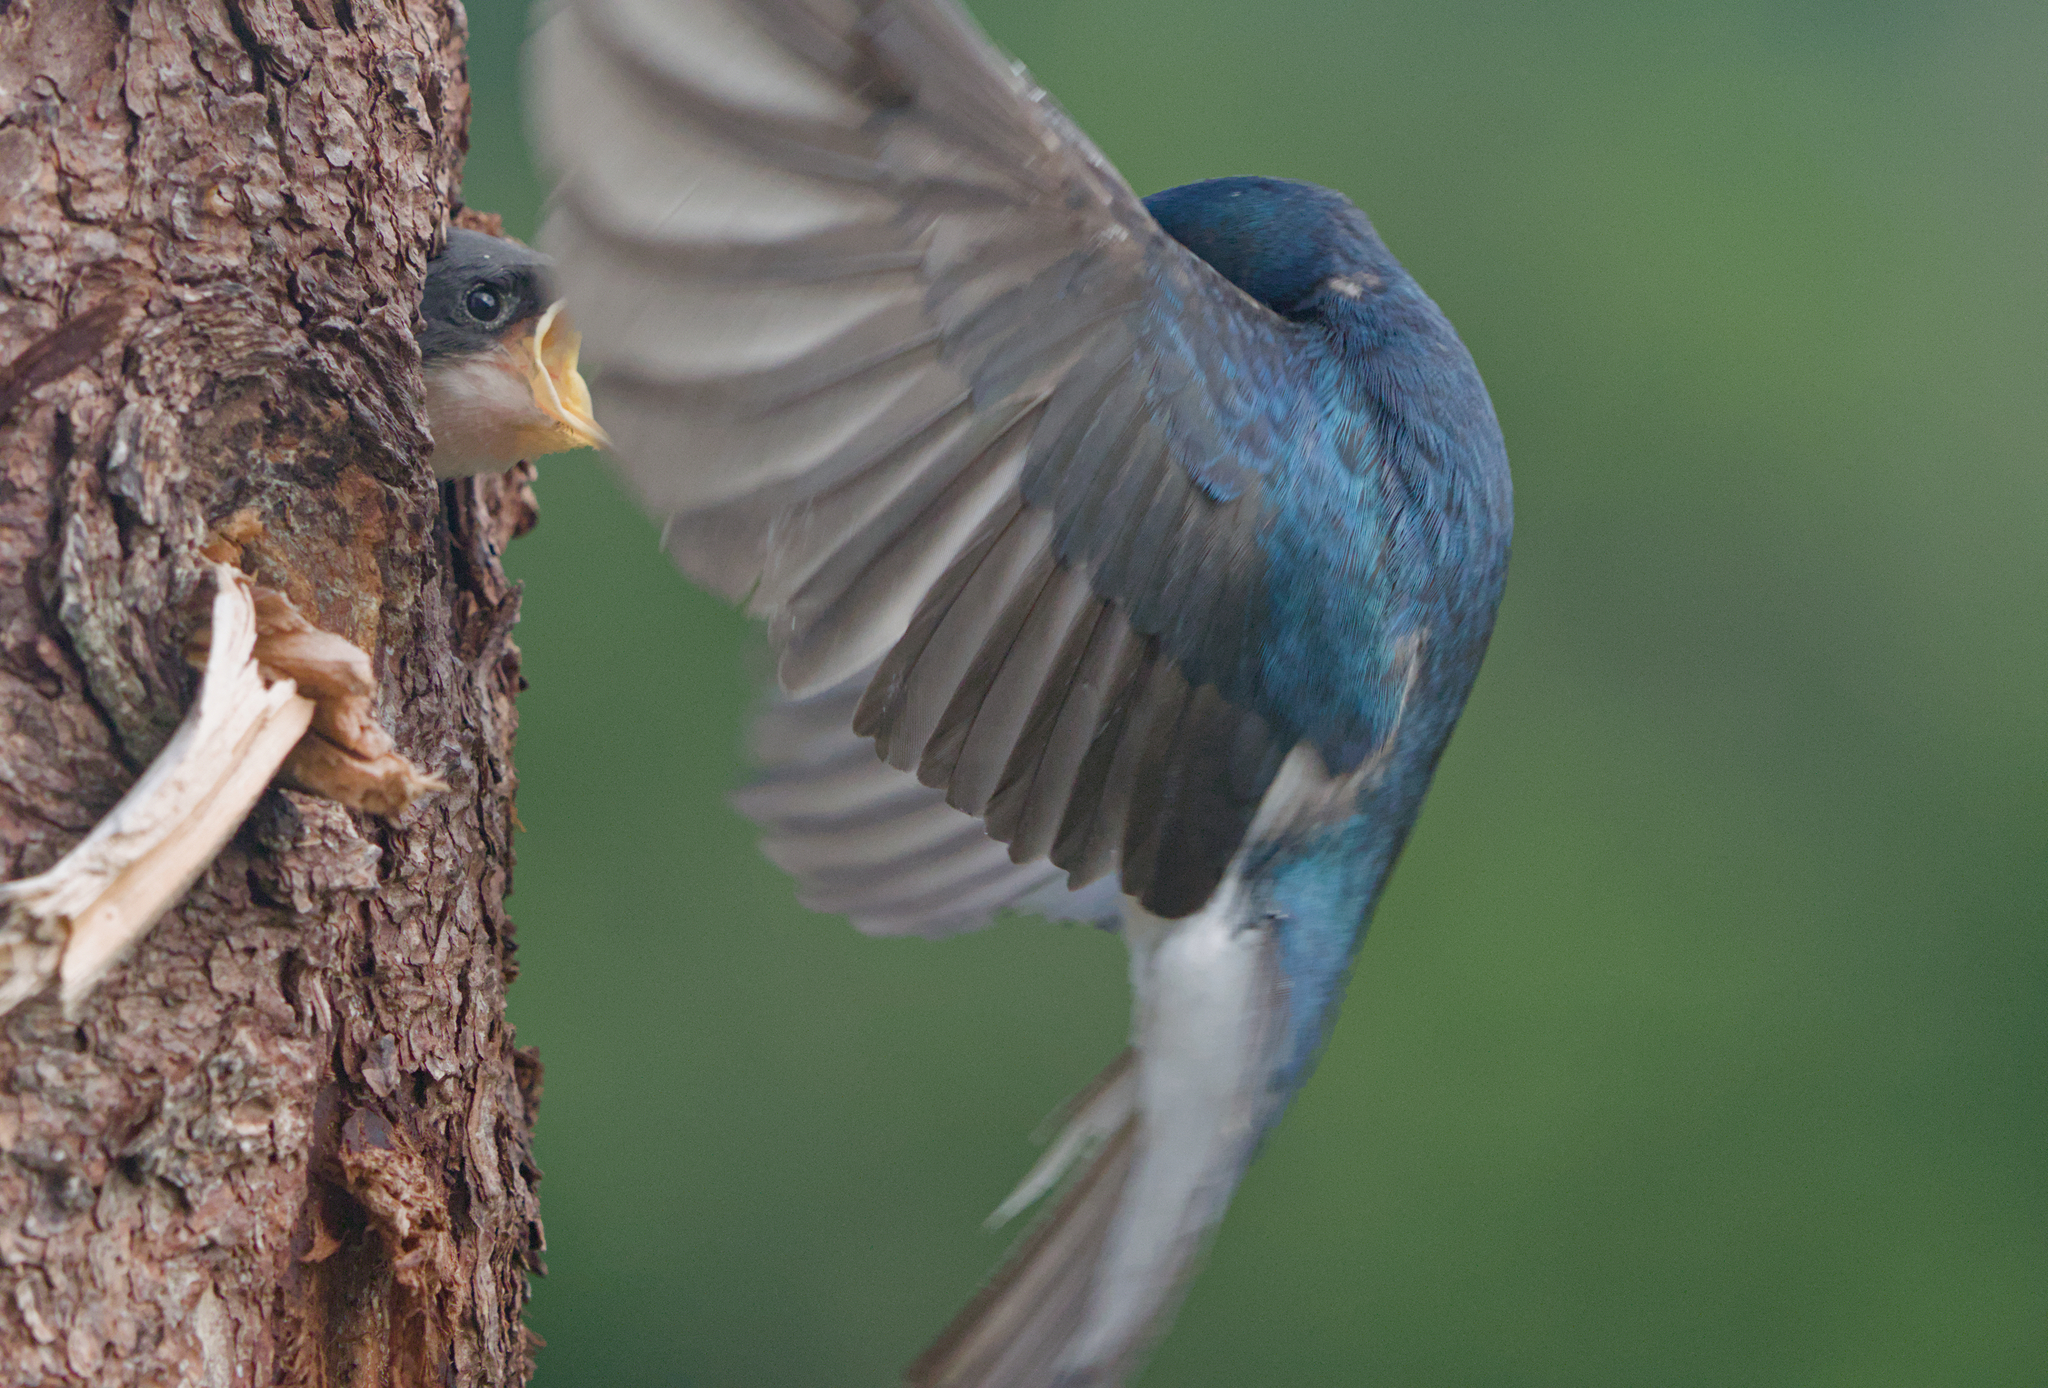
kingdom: Animalia
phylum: Chordata
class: Aves
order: Passeriformes
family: Hirundinidae
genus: Tachycineta
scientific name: Tachycineta bicolor
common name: Tree swallow
